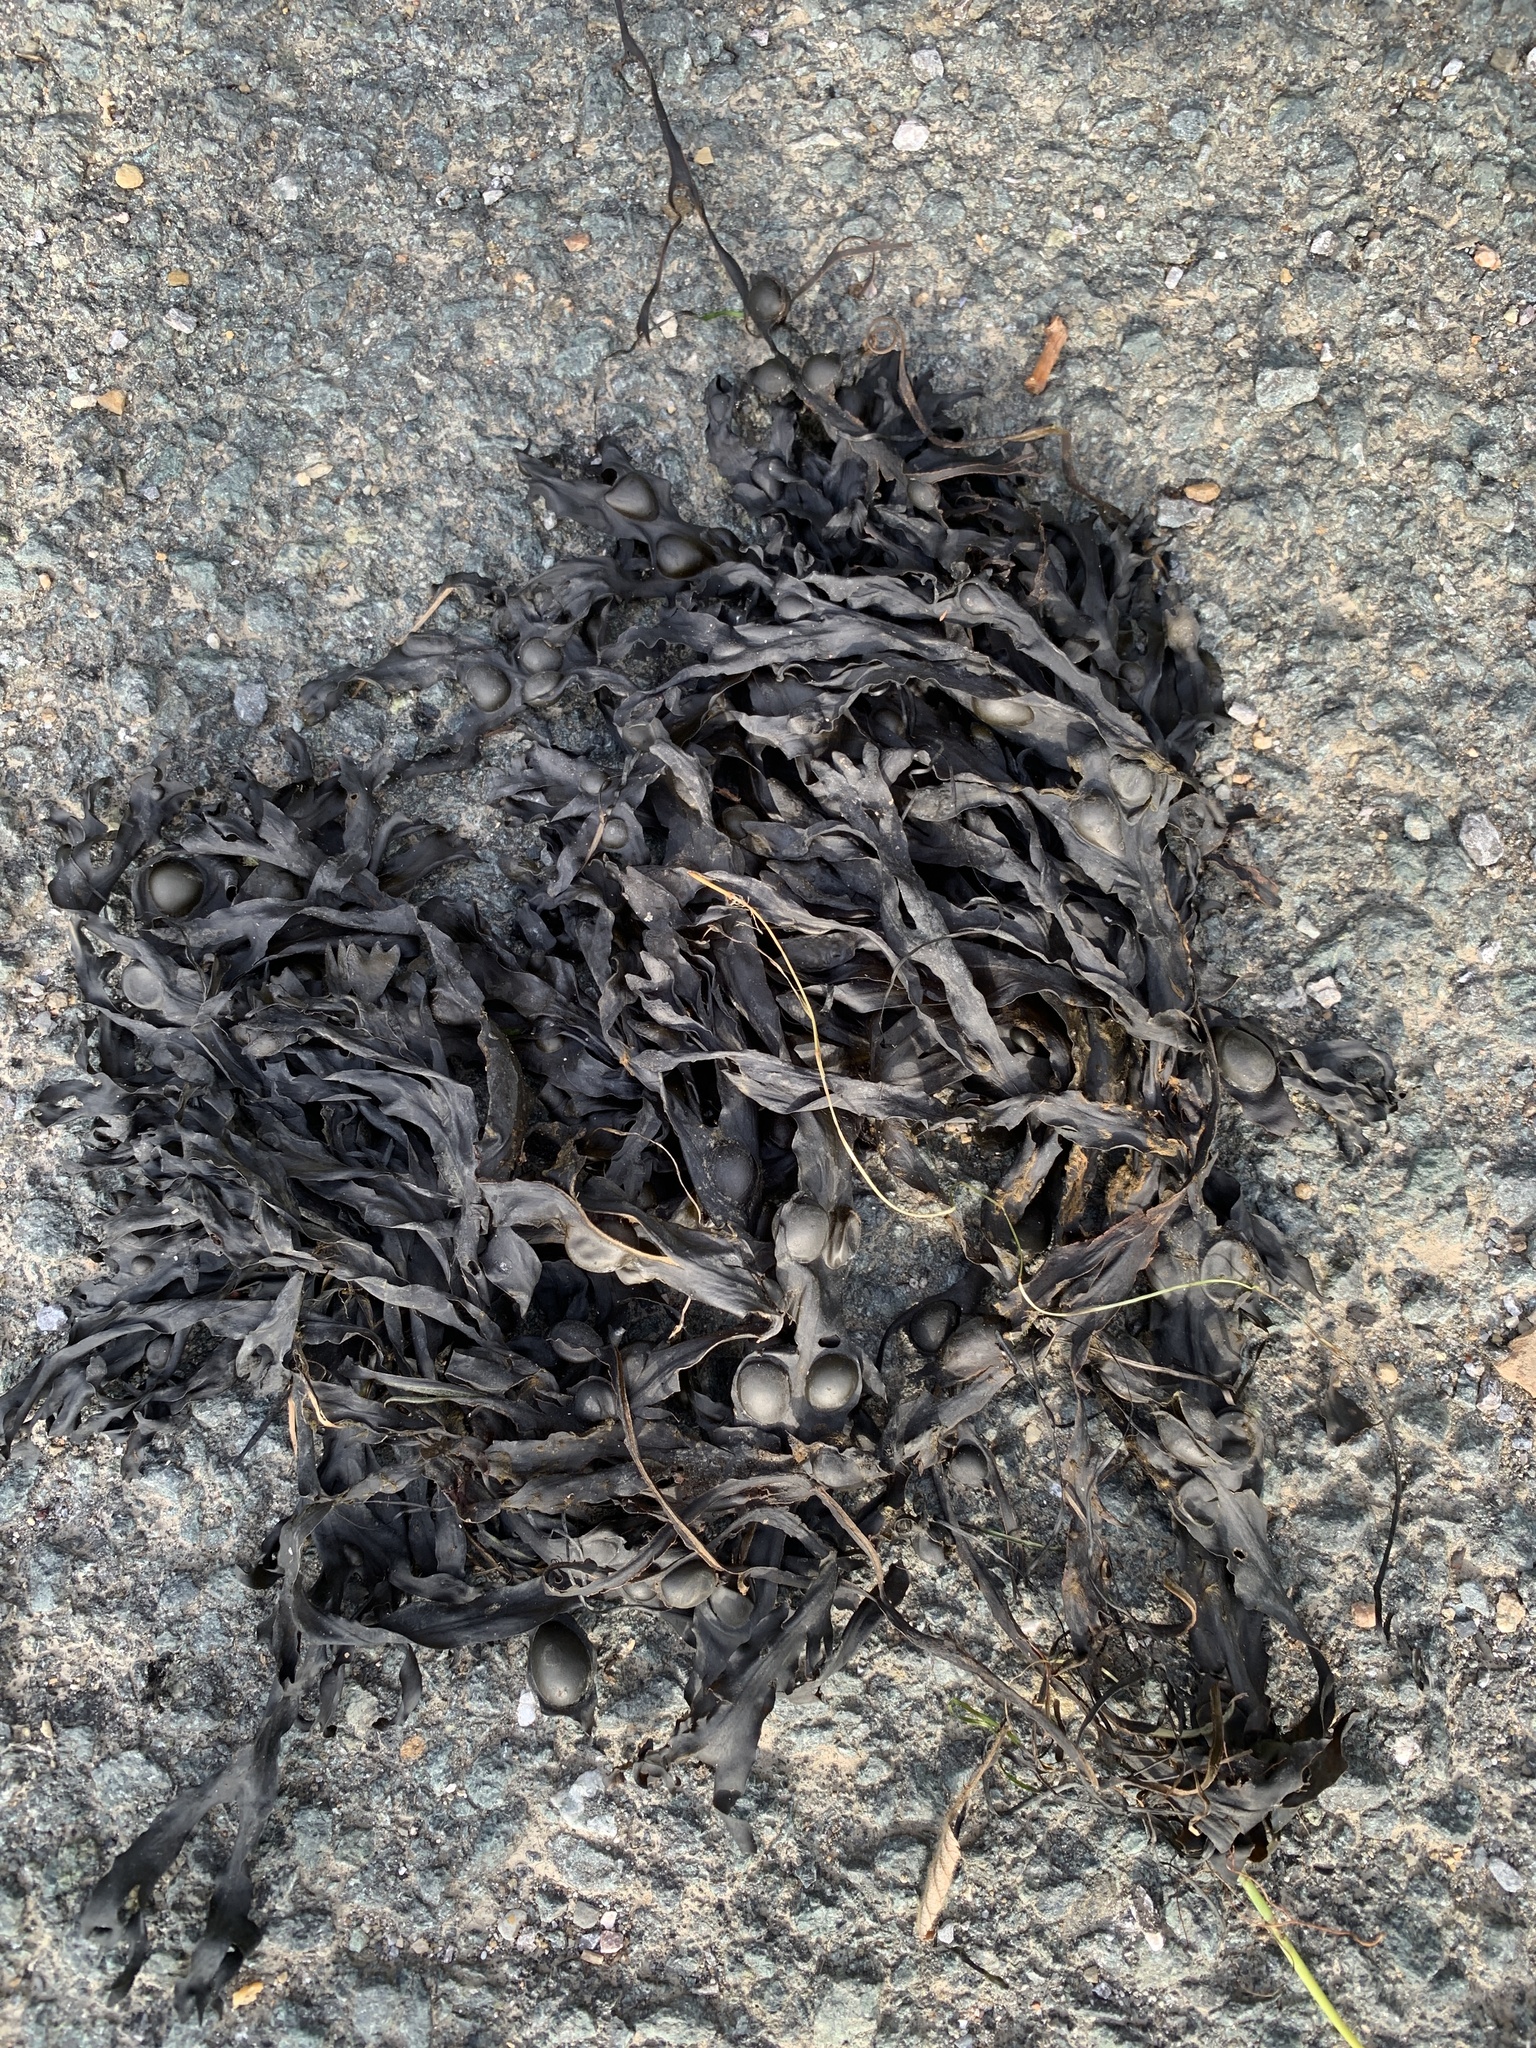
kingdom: Chromista
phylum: Ochrophyta
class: Phaeophyceae
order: Fucales
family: Fucaceae
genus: Fucus
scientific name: Fucus vesiculosus
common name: Bladder wrack
